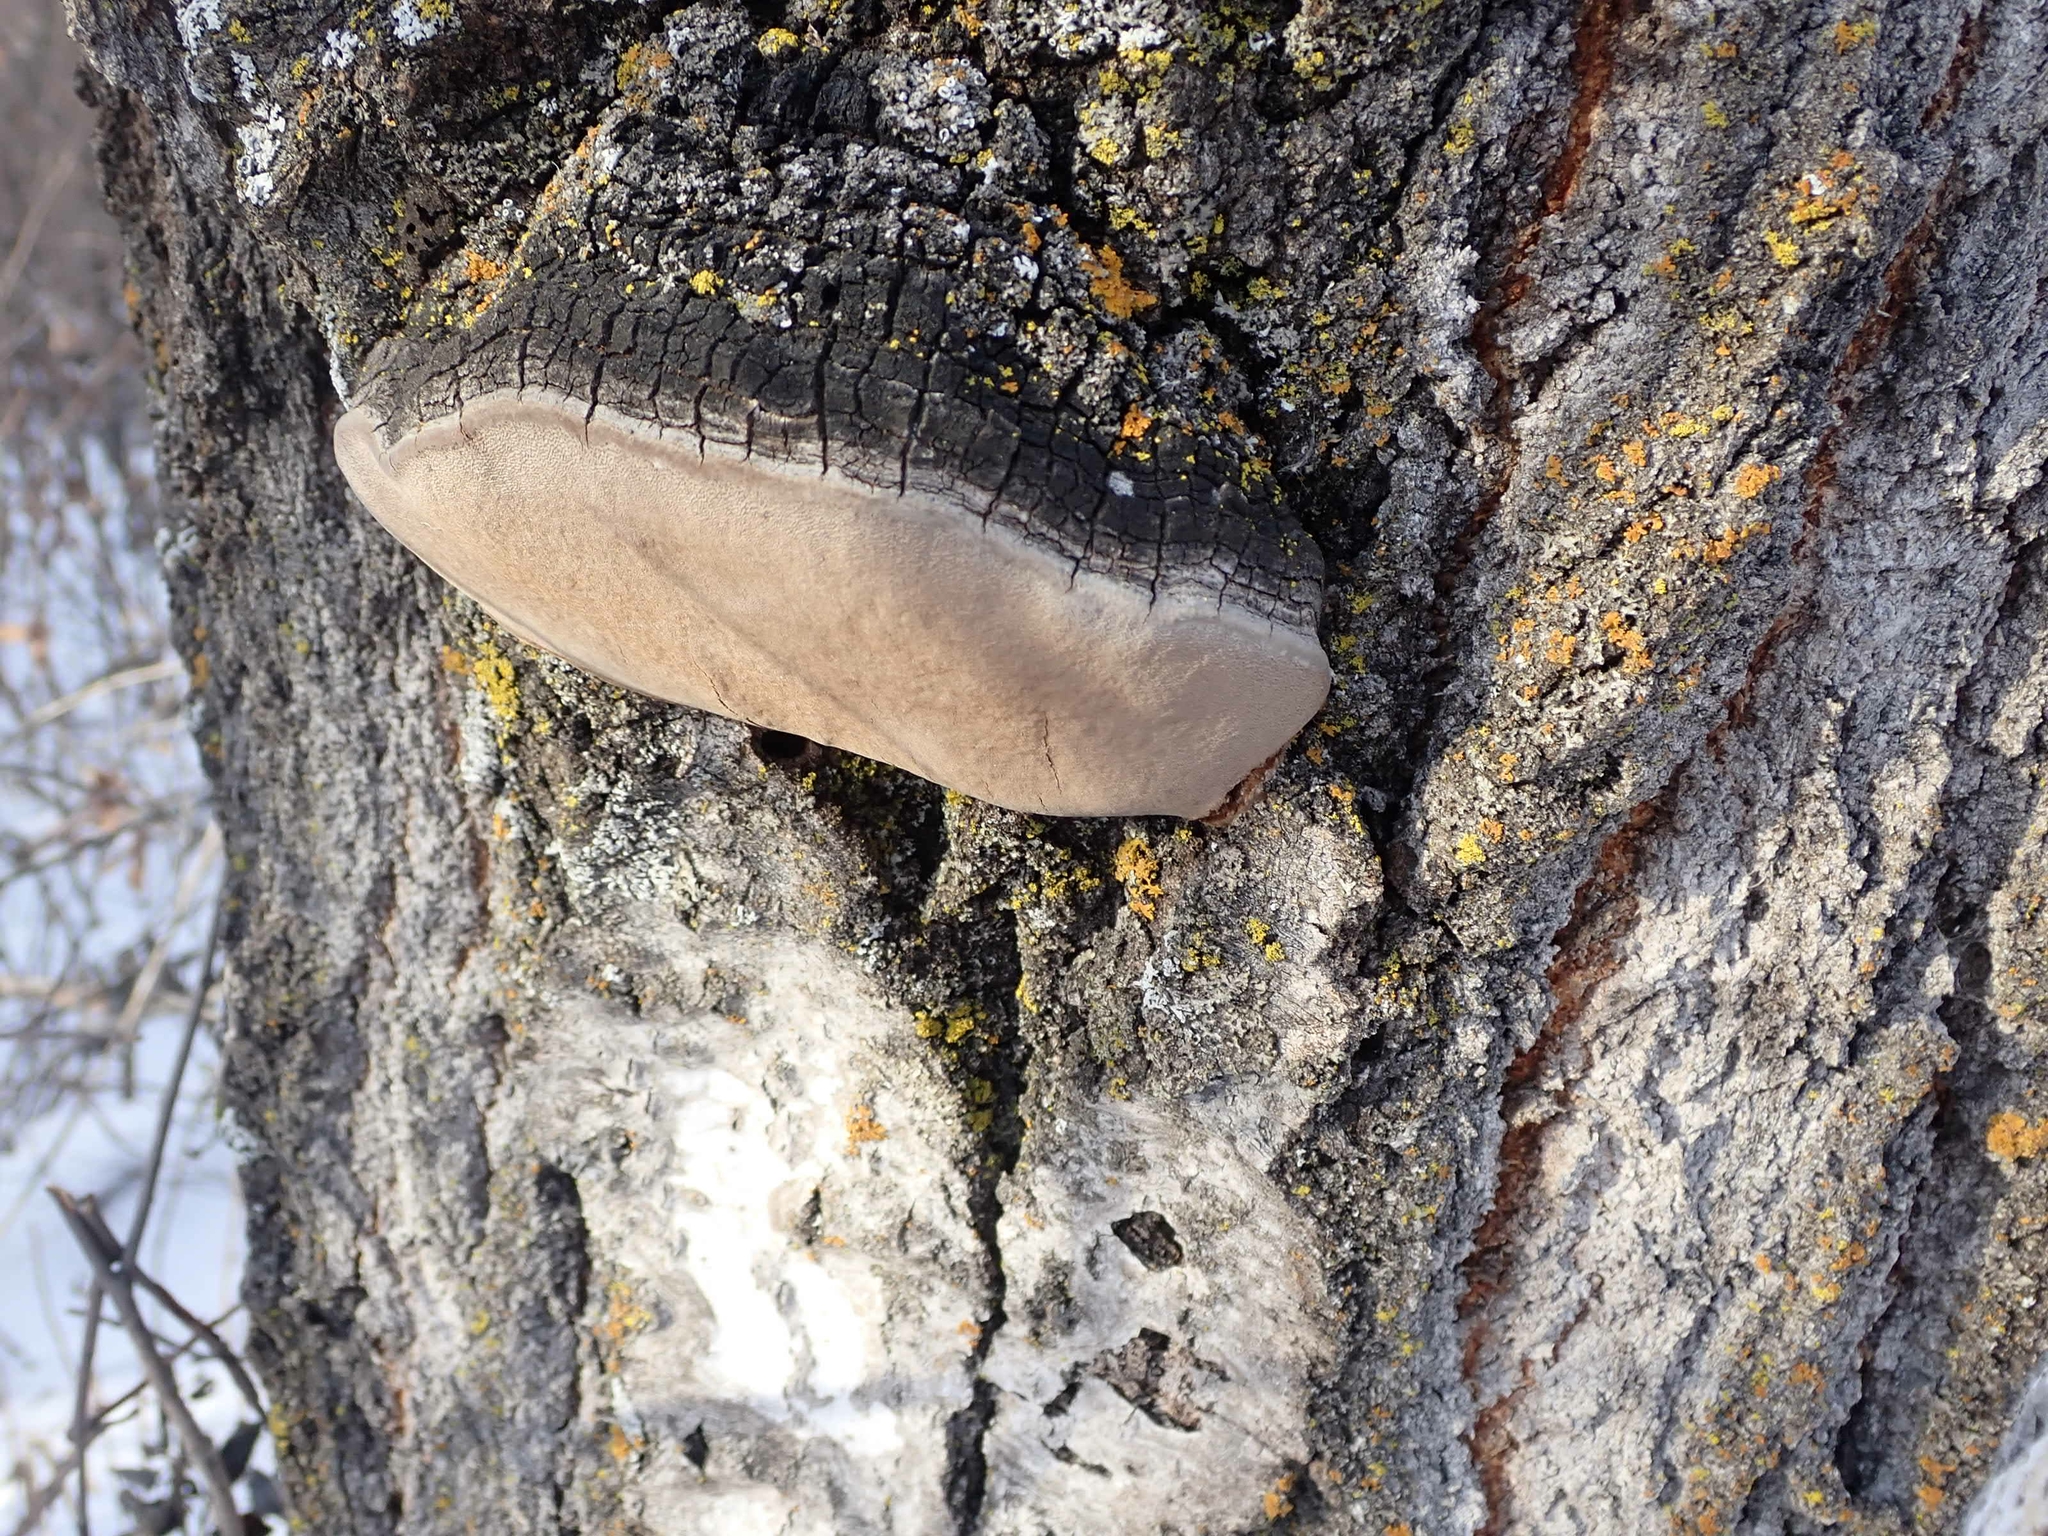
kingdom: Fungi
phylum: Basidiomycota
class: Agaricomycetes
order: Hymenochaetales
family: Hymenochaetaceae
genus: Phellinus
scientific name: Phellinus tremulae
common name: Aspen bracket
